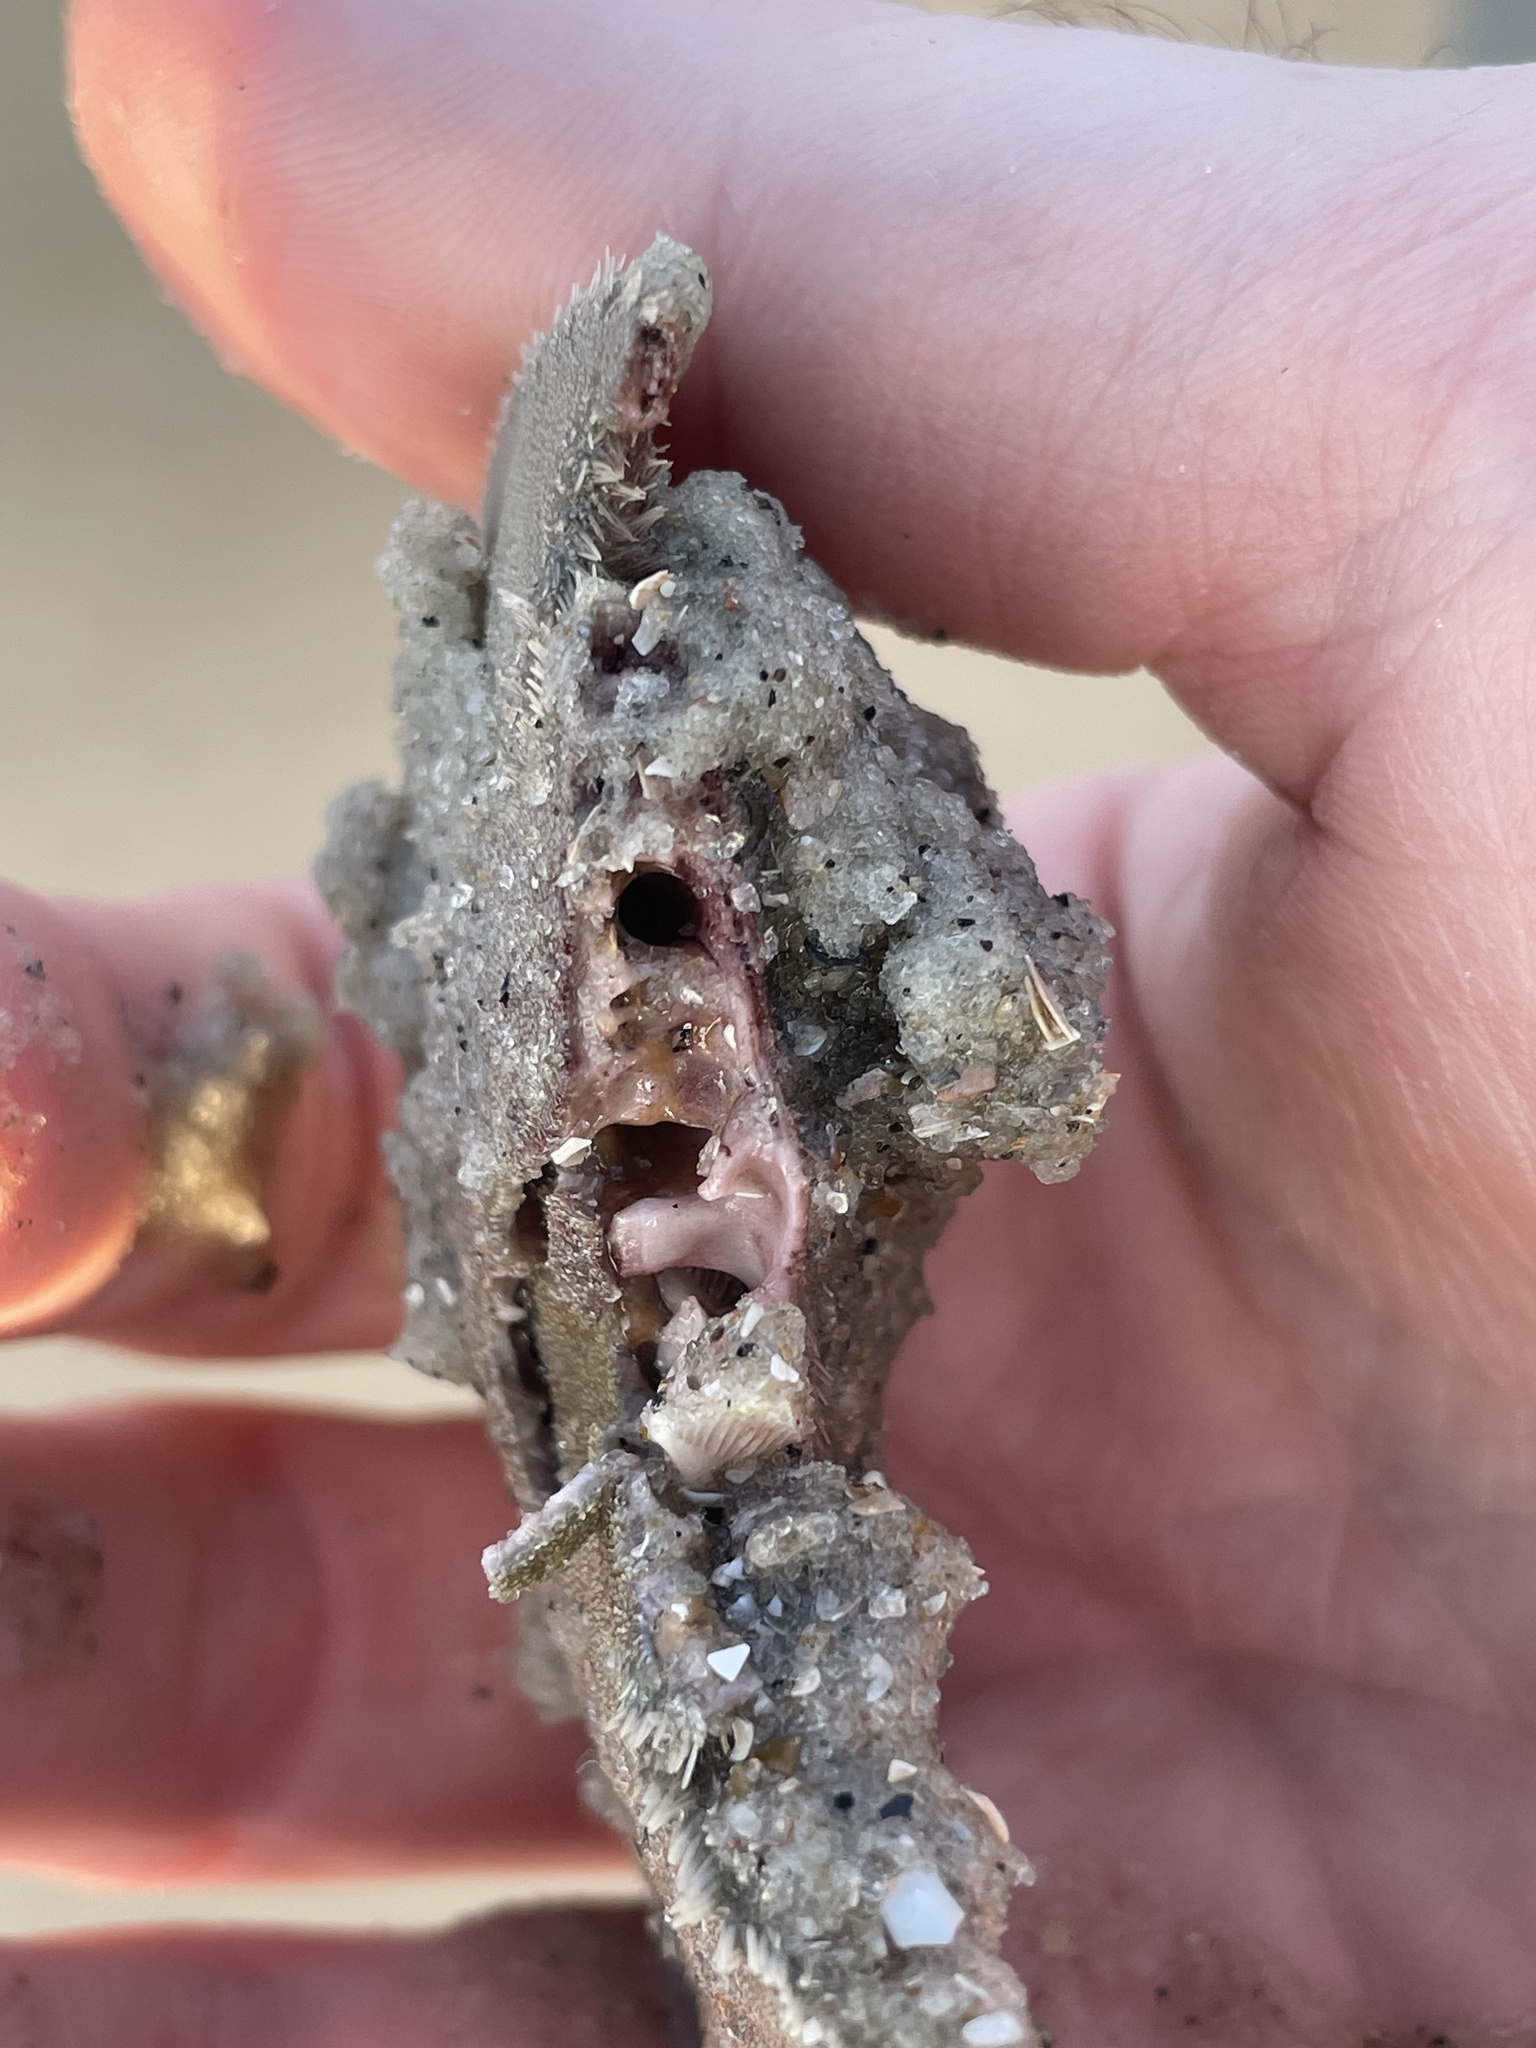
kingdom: Animalia
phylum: Echinodermata
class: Echinoidea
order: Echinolampadacea
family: Mellitidae
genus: Mellita
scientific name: Mellita isometra
